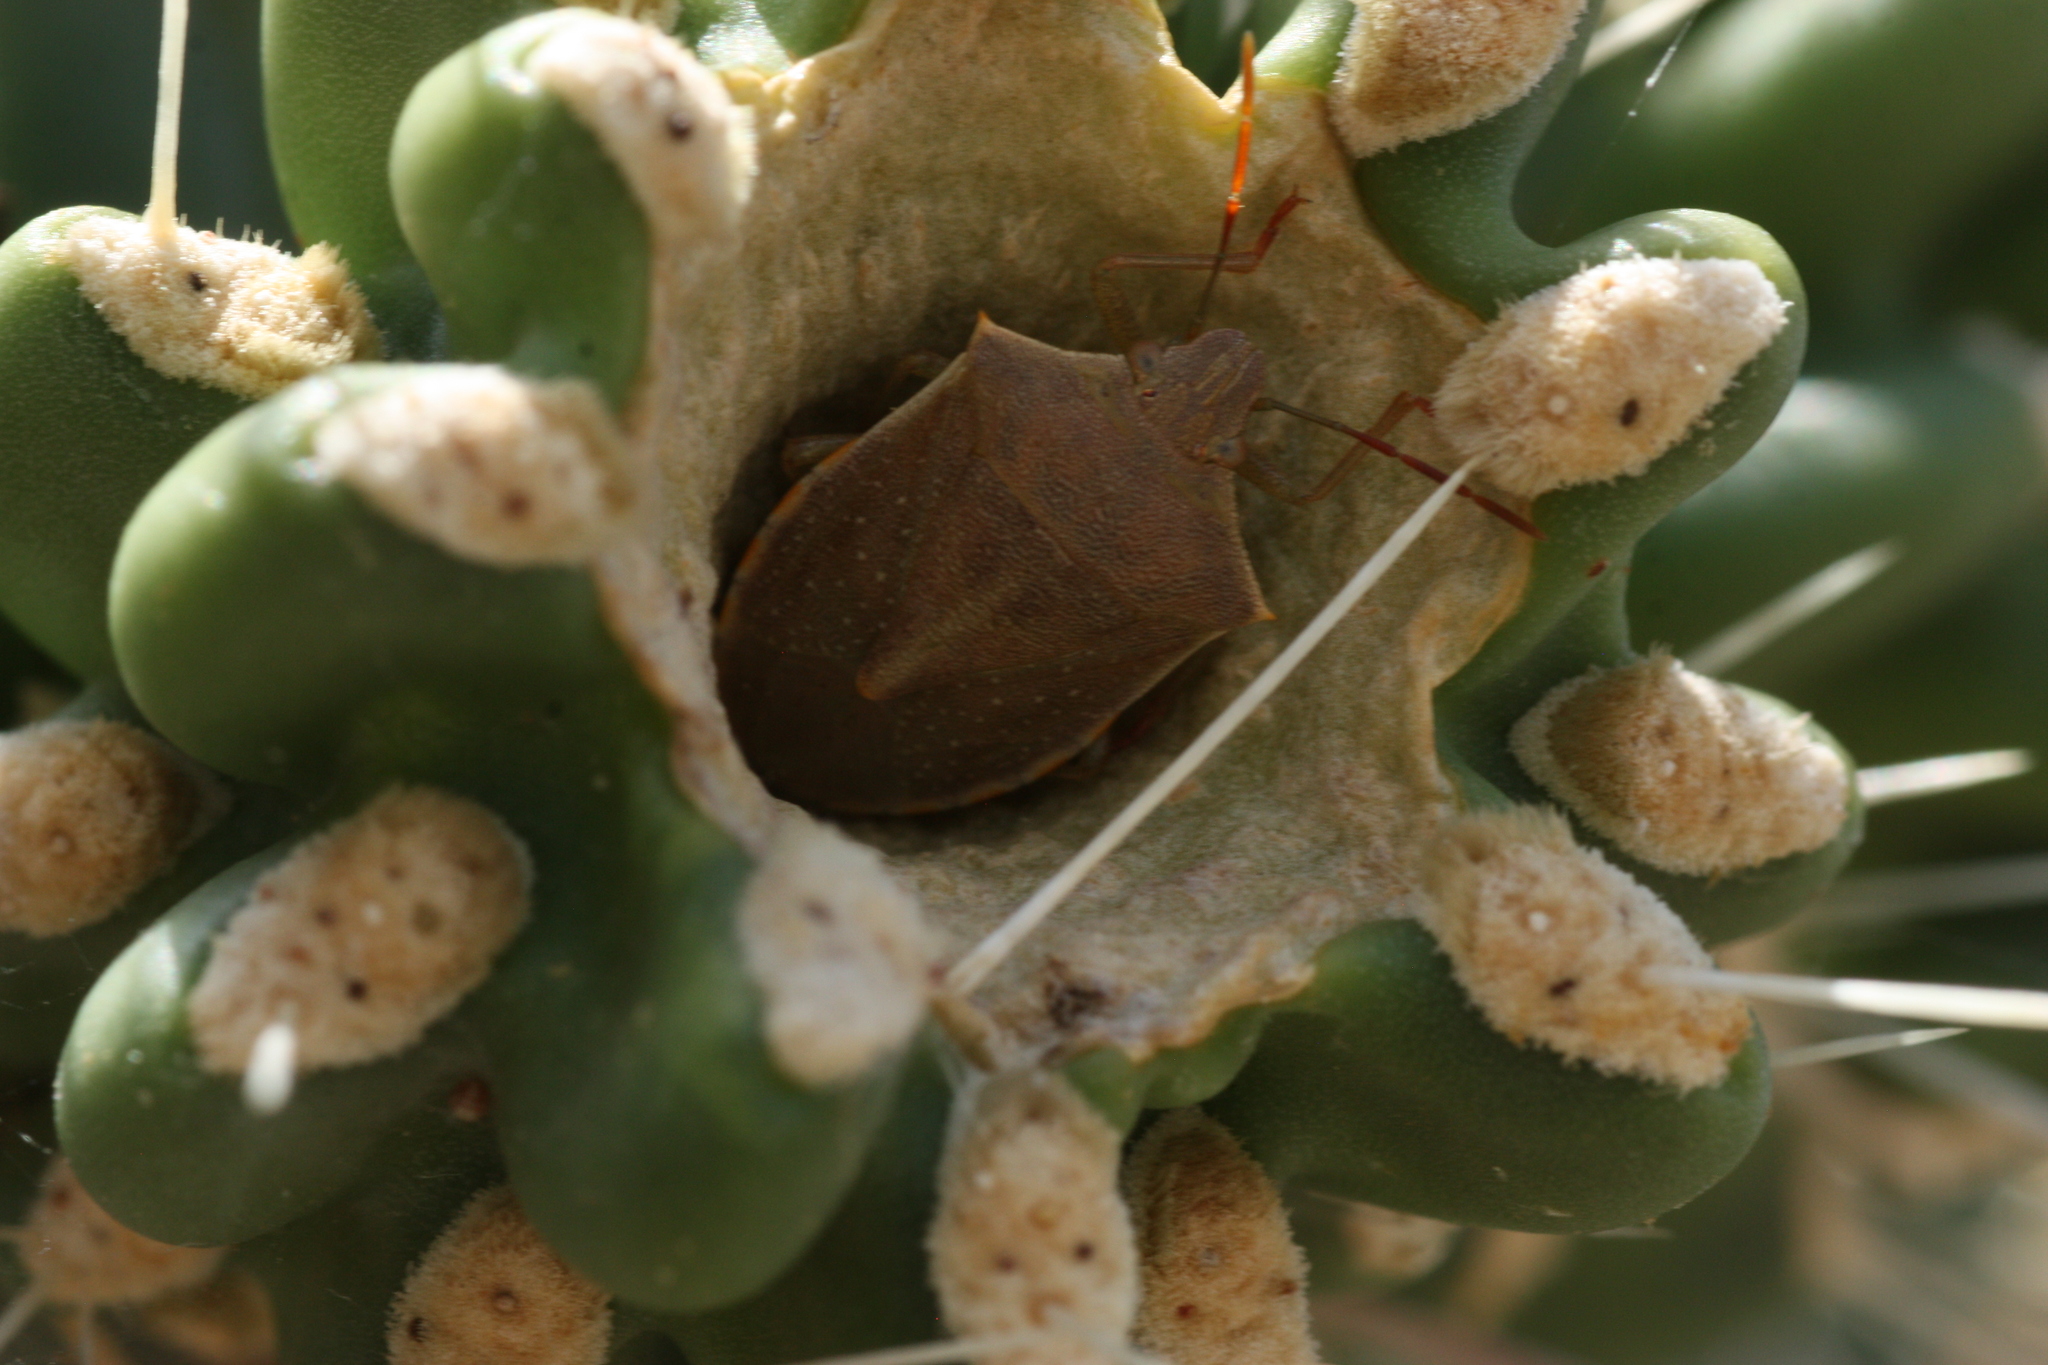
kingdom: Animalia
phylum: Arthropoda
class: Insecta
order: Hemiptera
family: Pentatomidae
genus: Thyanta
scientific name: Thyanta accerra
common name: Stink bug
